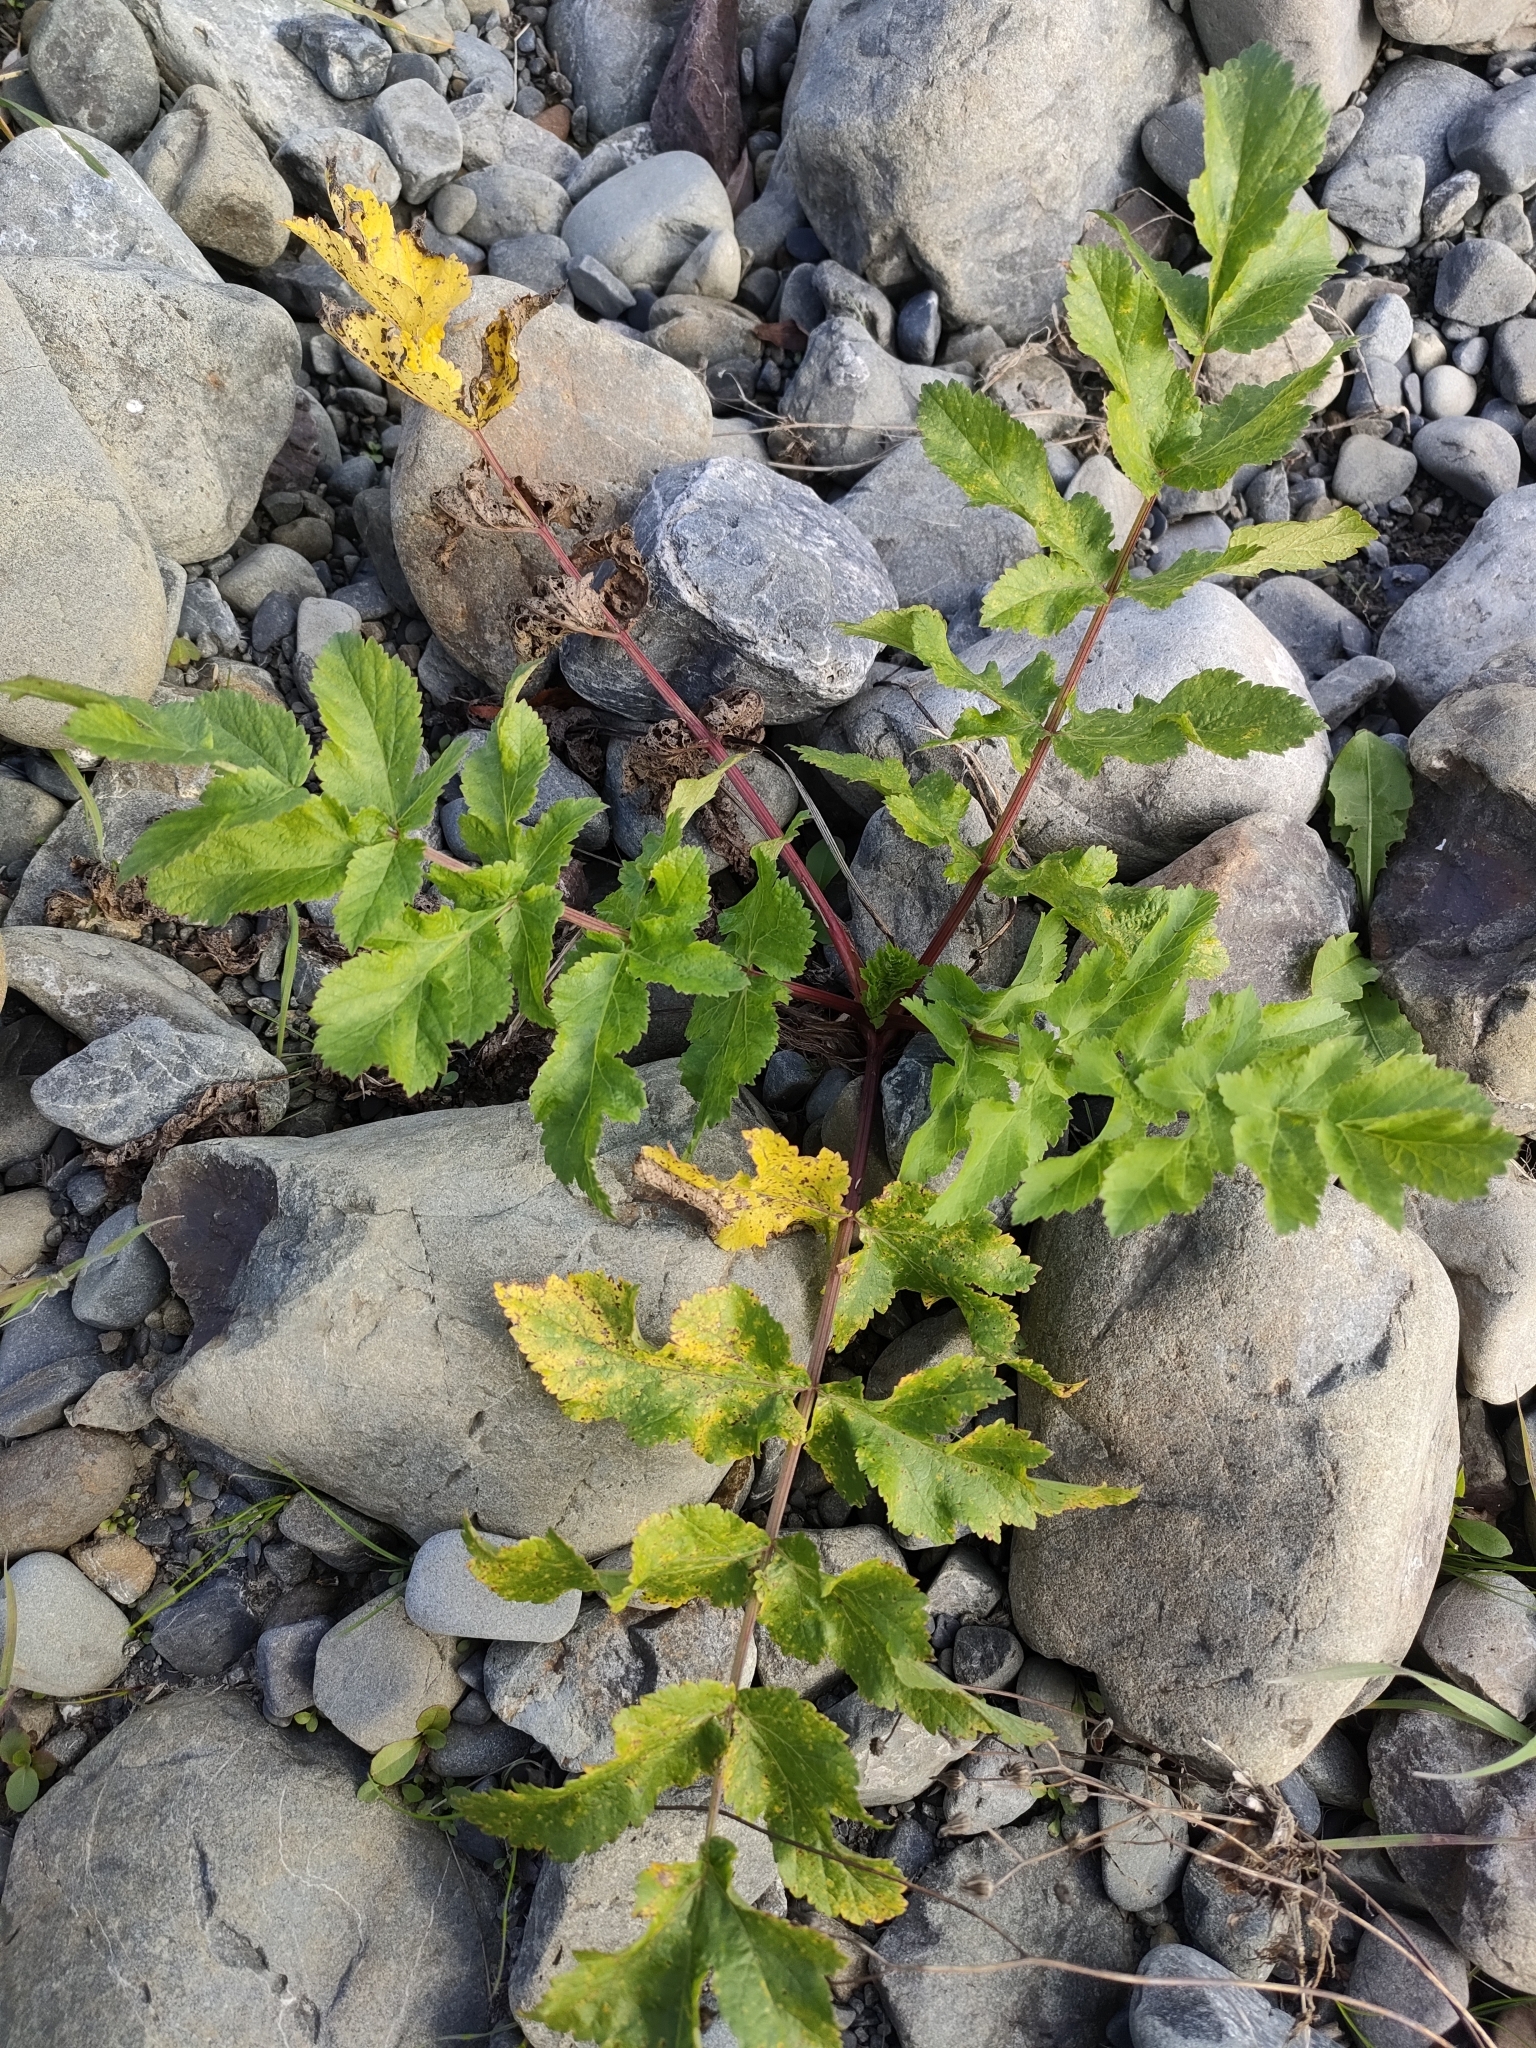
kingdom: Plantae
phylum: Tracheophyta
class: Magnoliopsida
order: Apiales
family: Apiaceae
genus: Pastinaca
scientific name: Pastinaca sativa
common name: Wild parsnip
